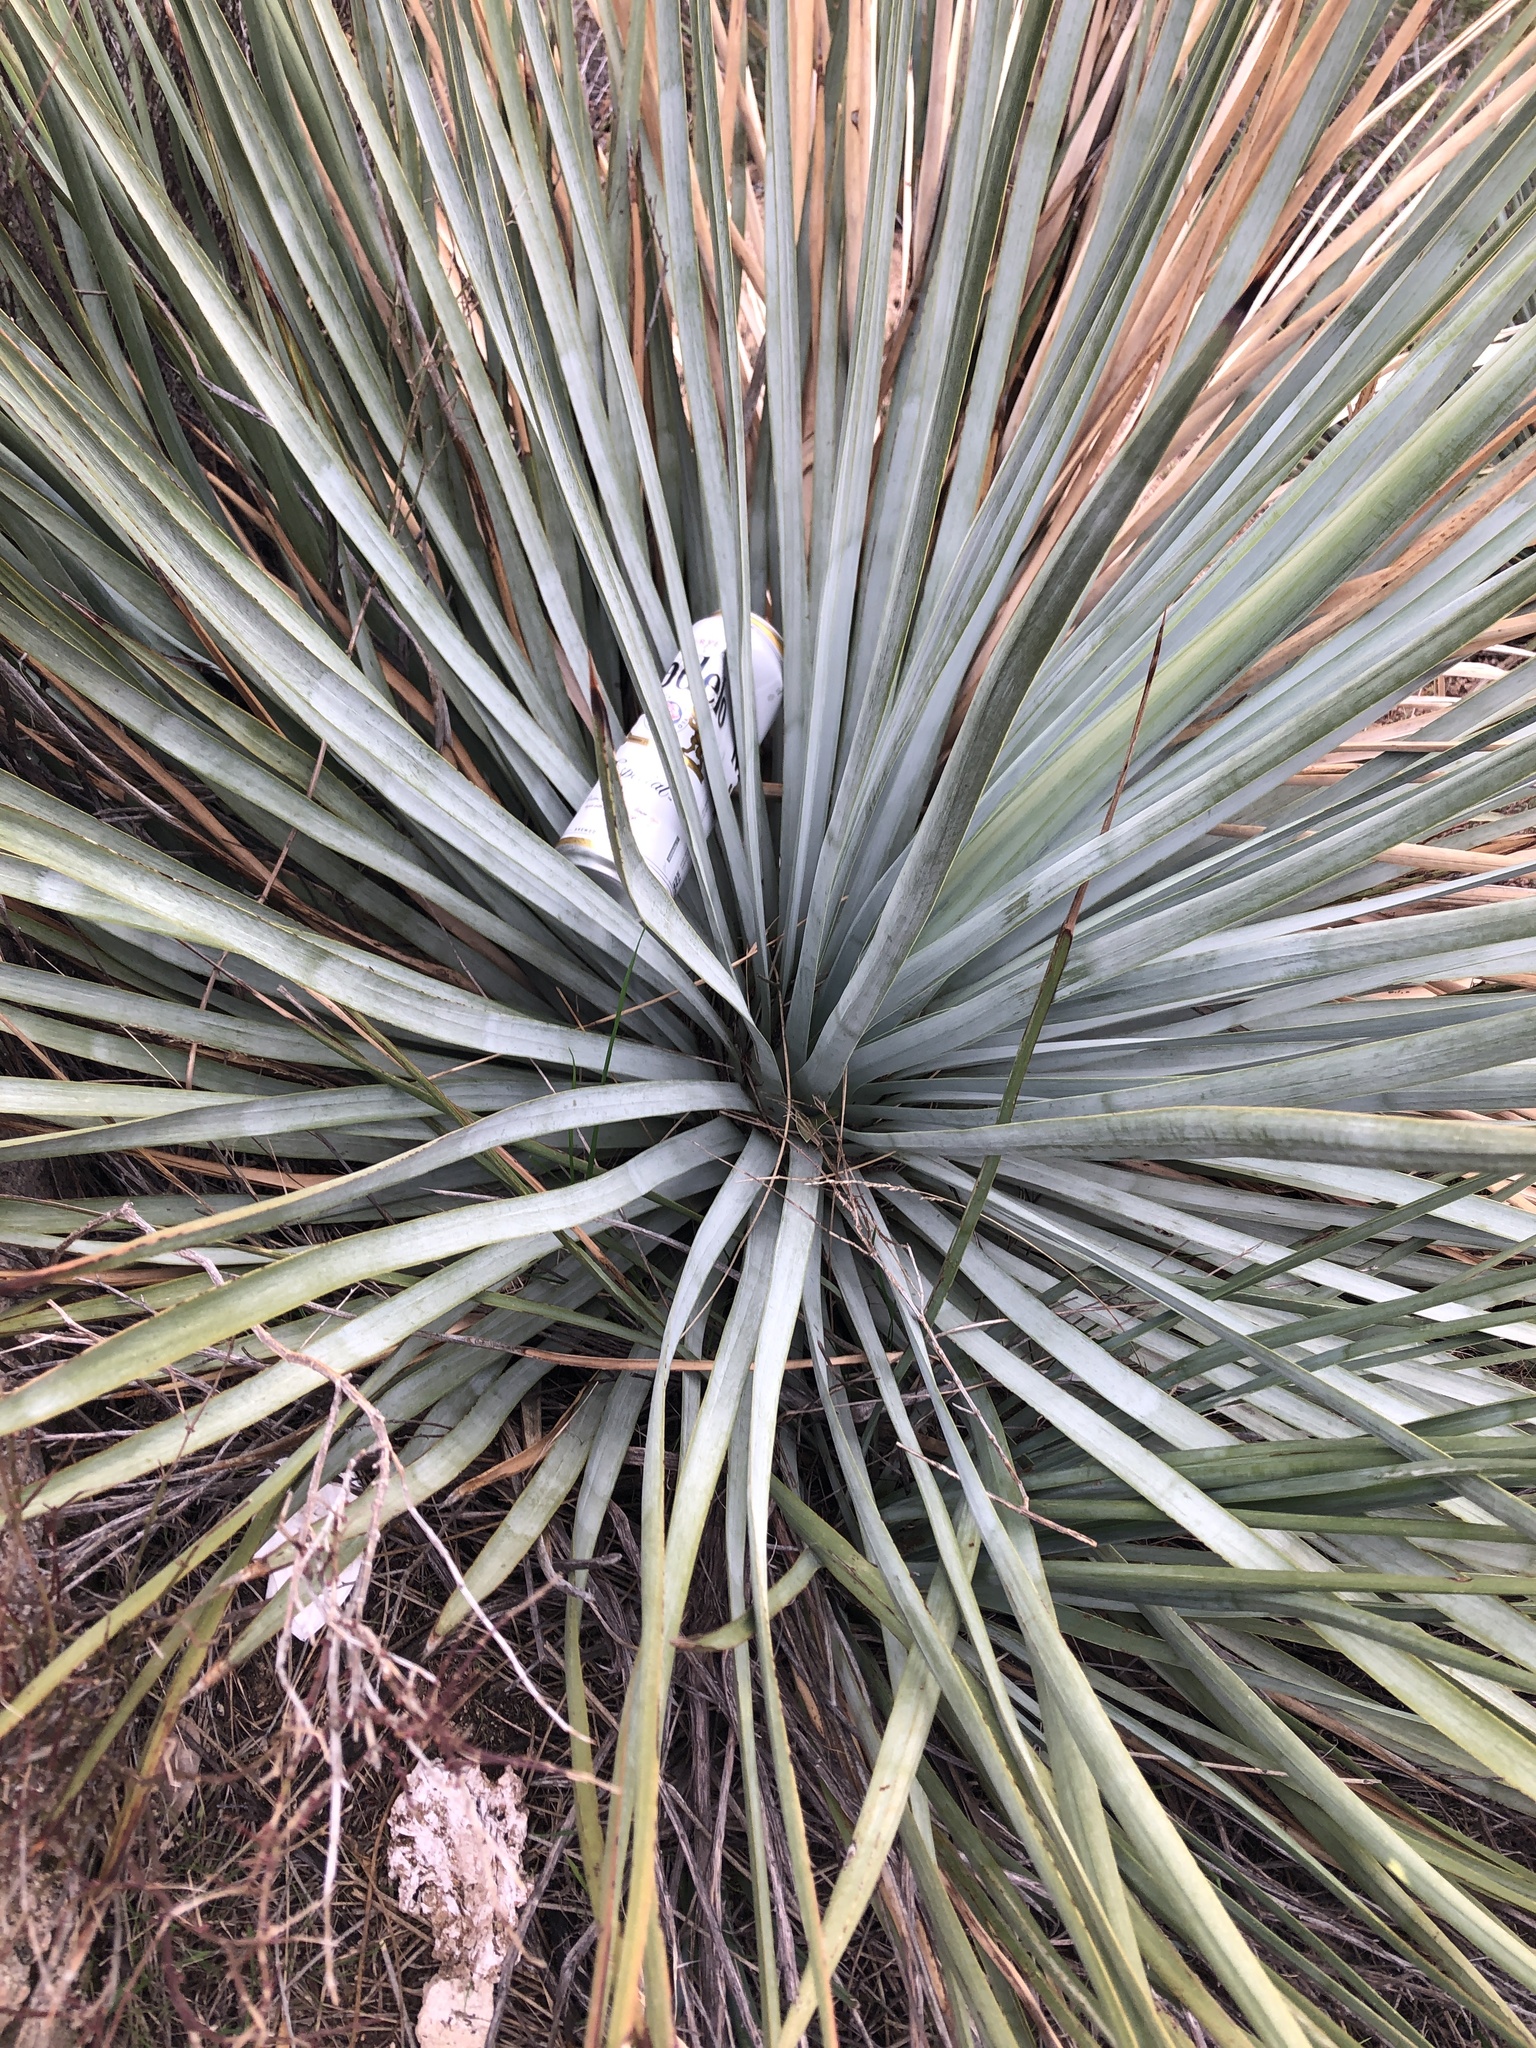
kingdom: Plantae
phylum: Tracheophyta
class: Liliopsida
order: Asparagales
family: Asparagaceae
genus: Hesperoyucca
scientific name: Hesperoyucca whipplei
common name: Our lord's-candle
